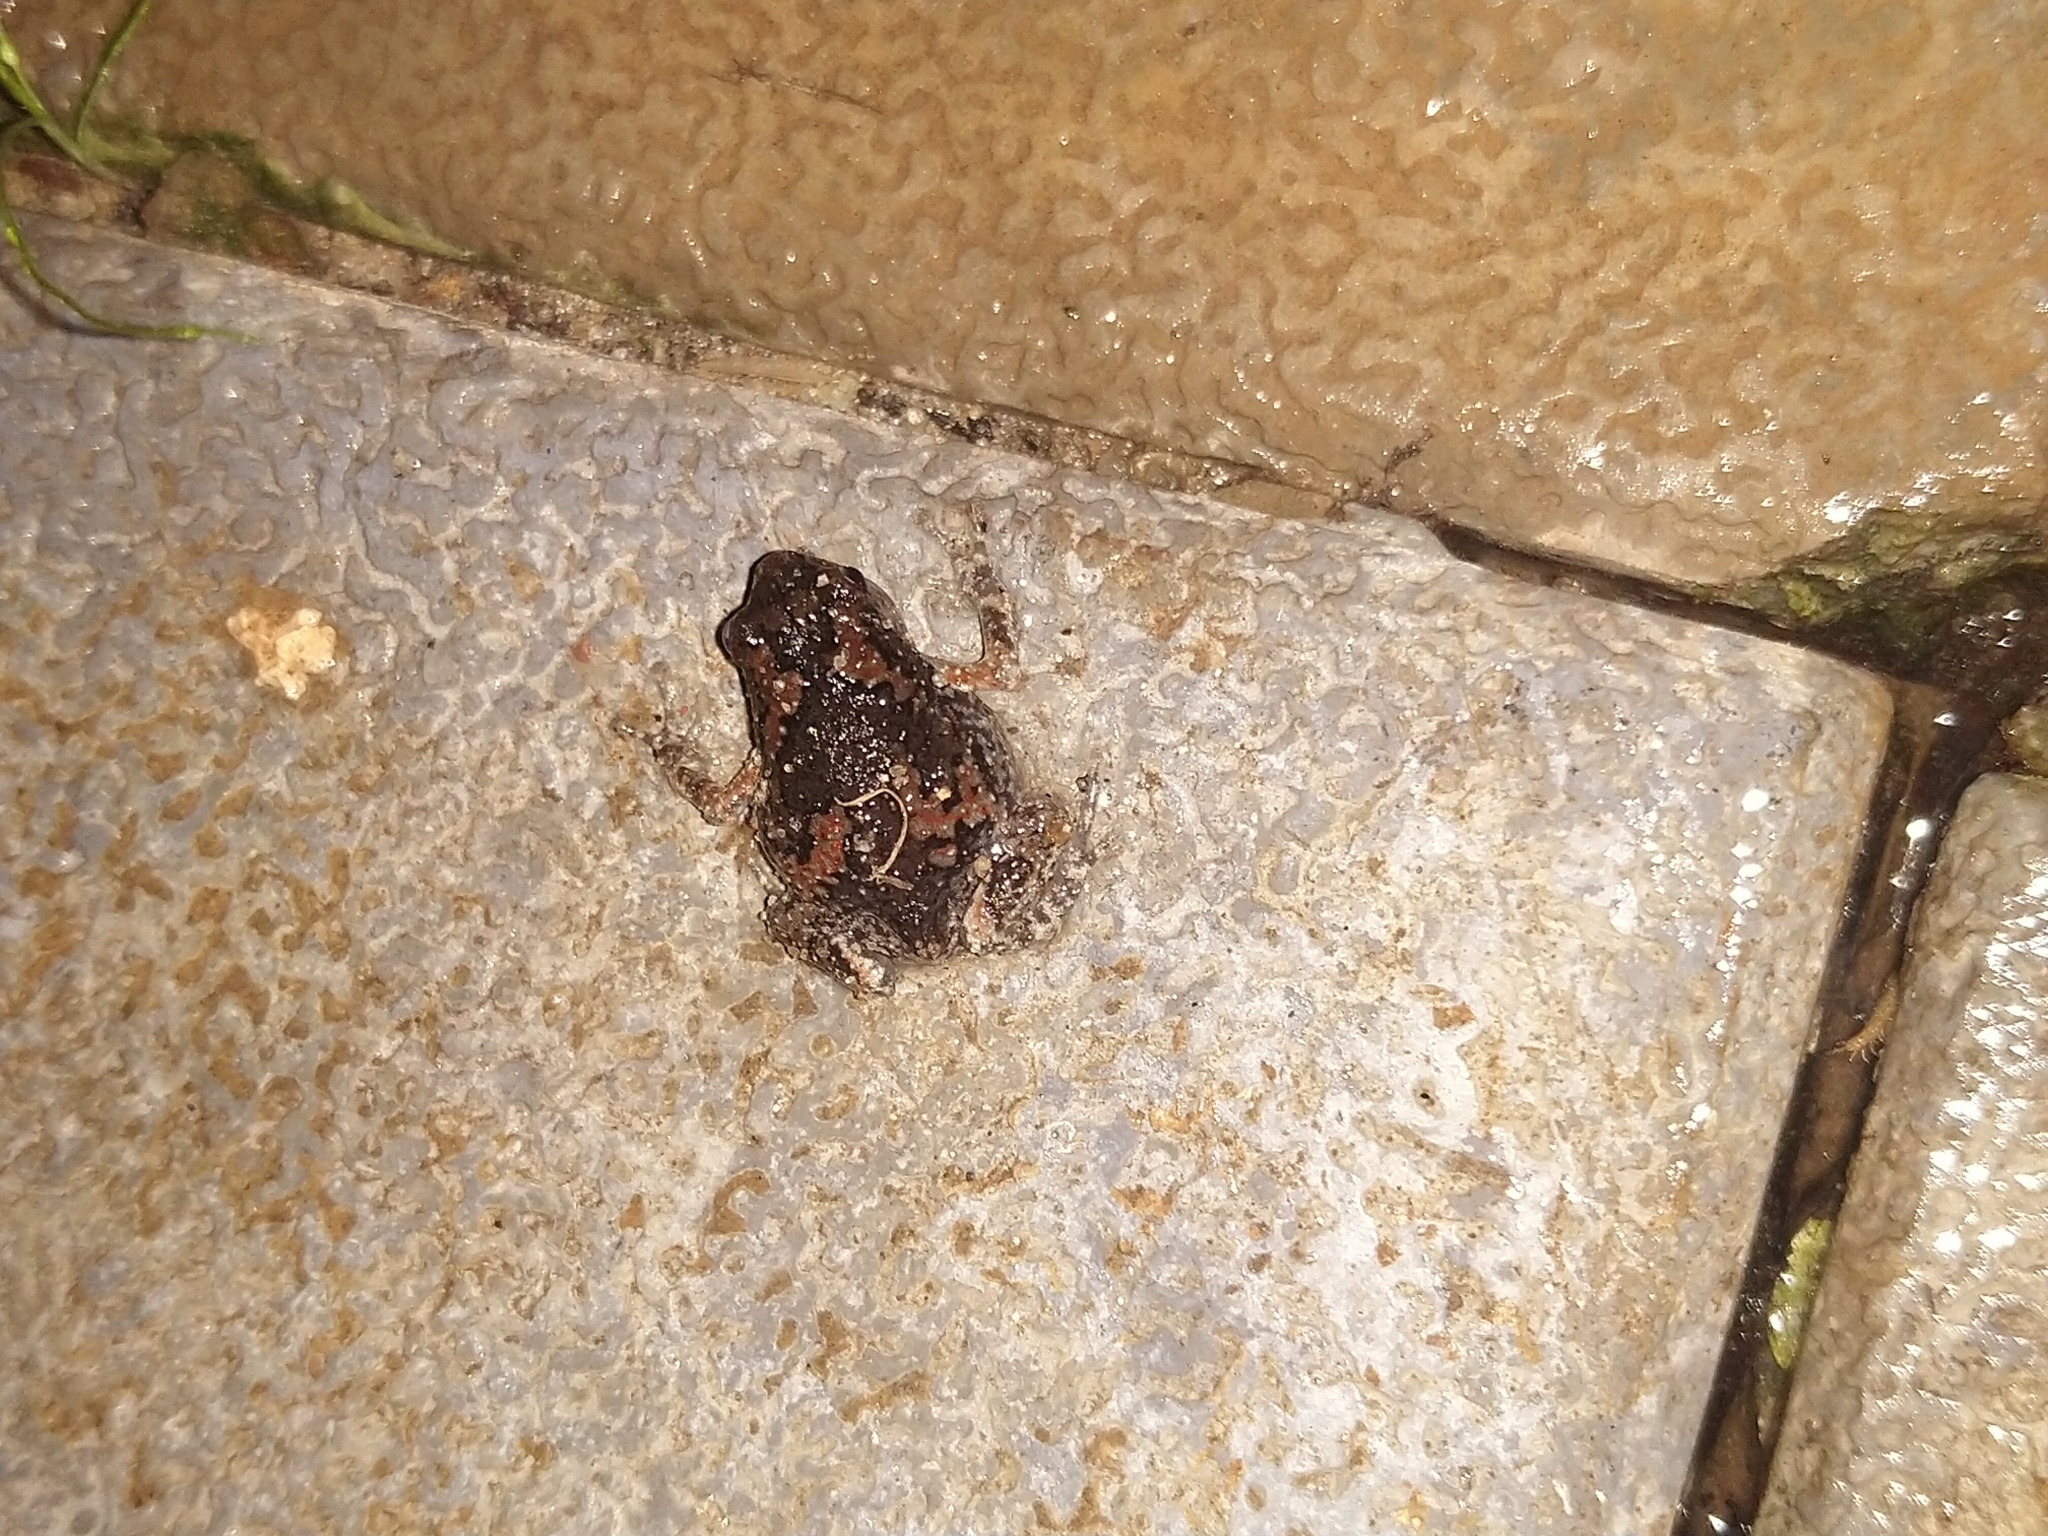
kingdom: Animalia
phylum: Chordata
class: Amphibia
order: Anura
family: Microhylidae
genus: Uperodon
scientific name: Uperodon taprobanicus
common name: Ceylon kaloula
